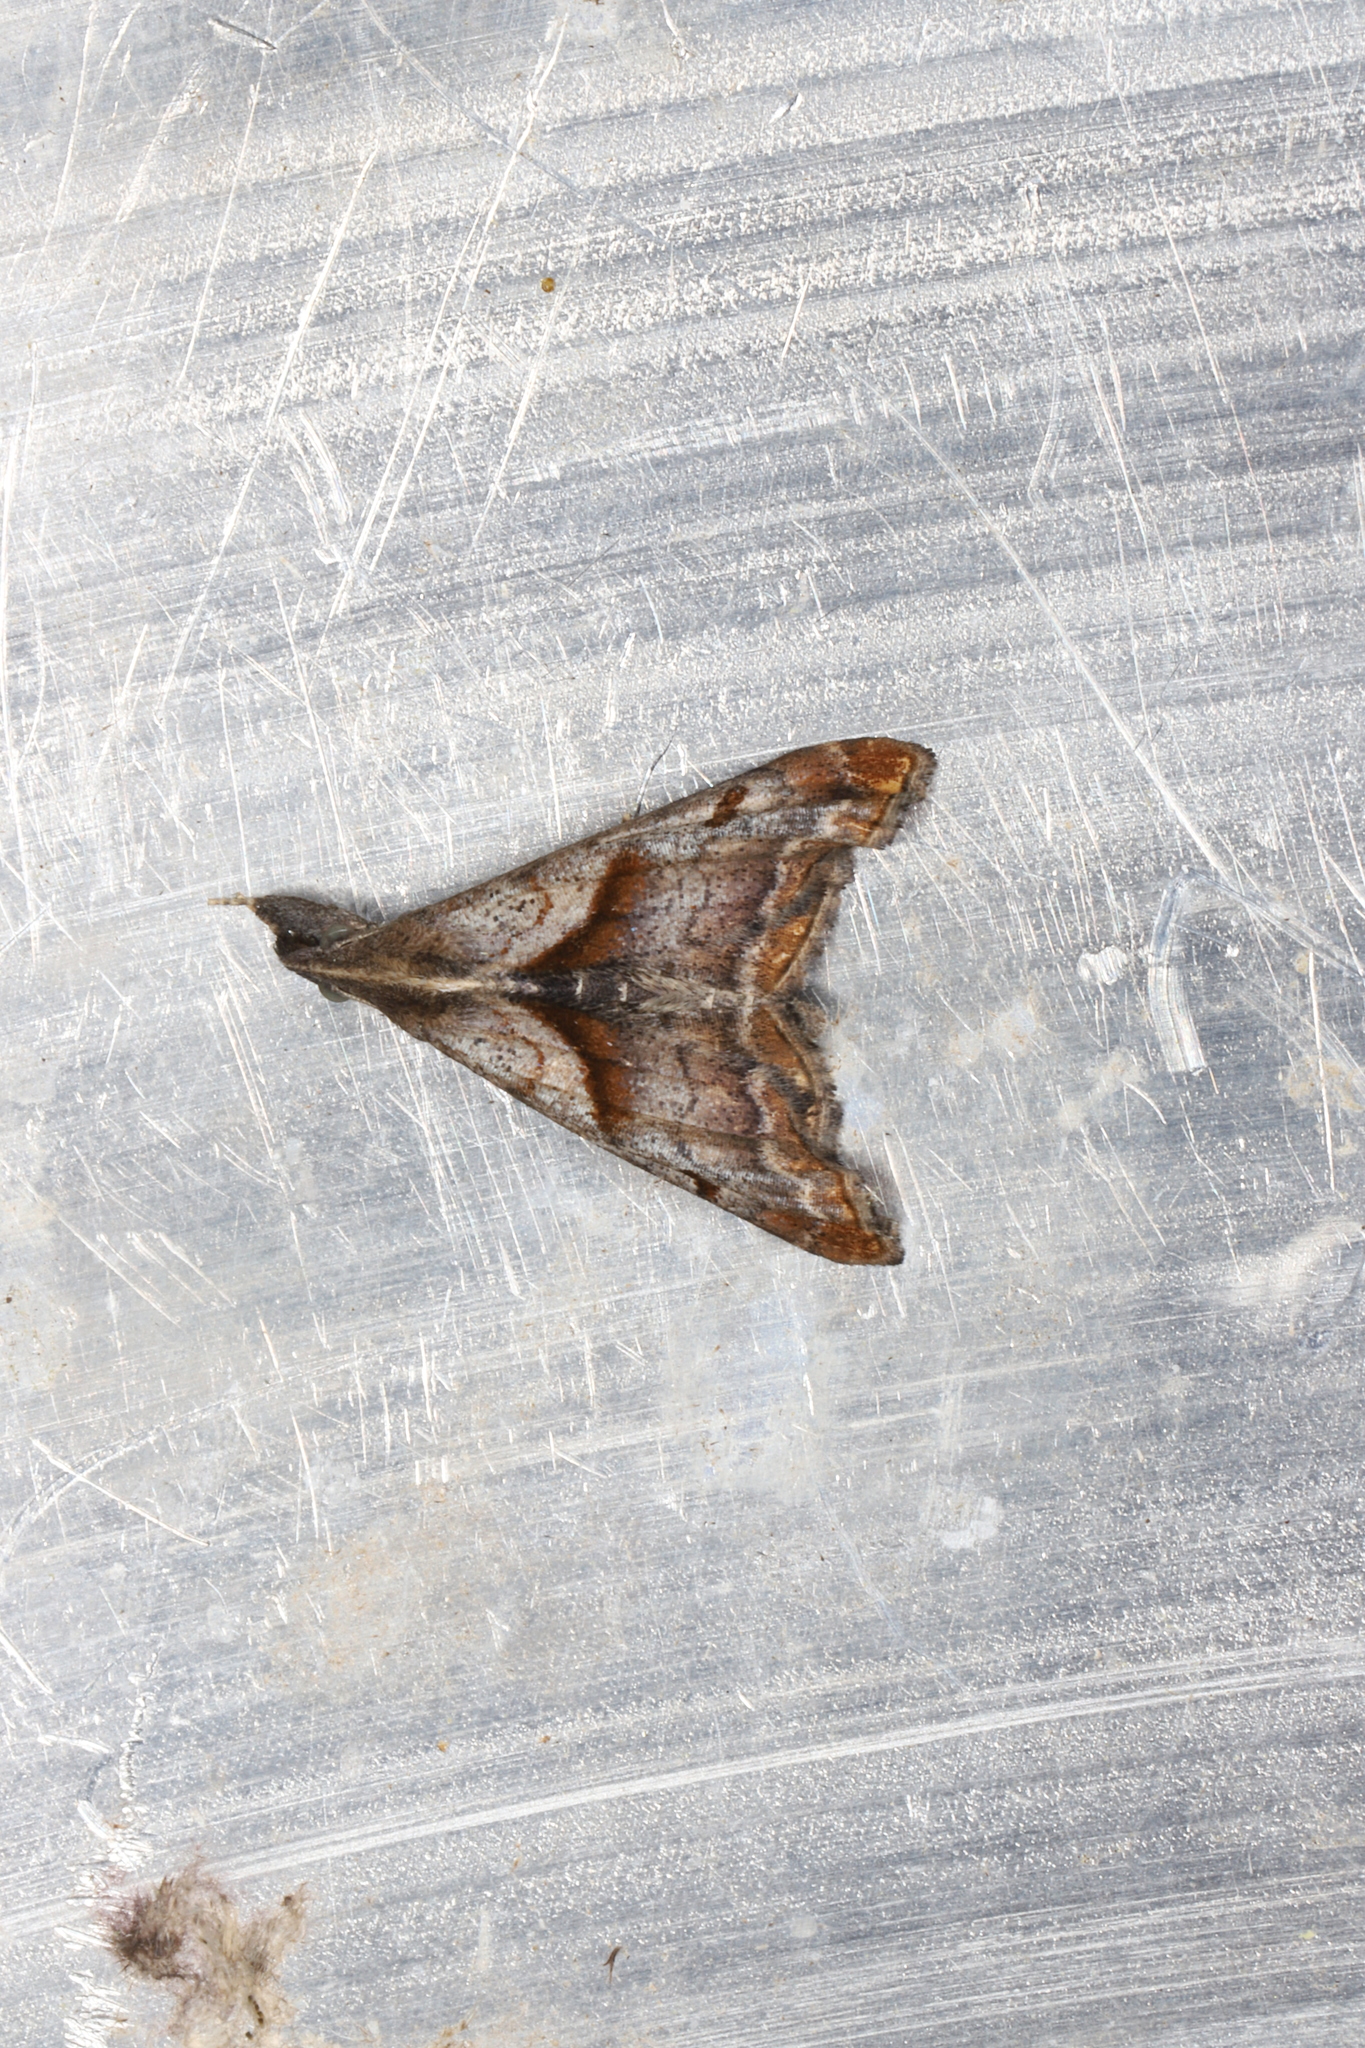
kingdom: Animalia
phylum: Arthropoda
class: Insecta
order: Lepidoptera
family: Erebidae
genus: Palthis
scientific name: Palthis angulalis
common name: Dark-spotted palthis moth
